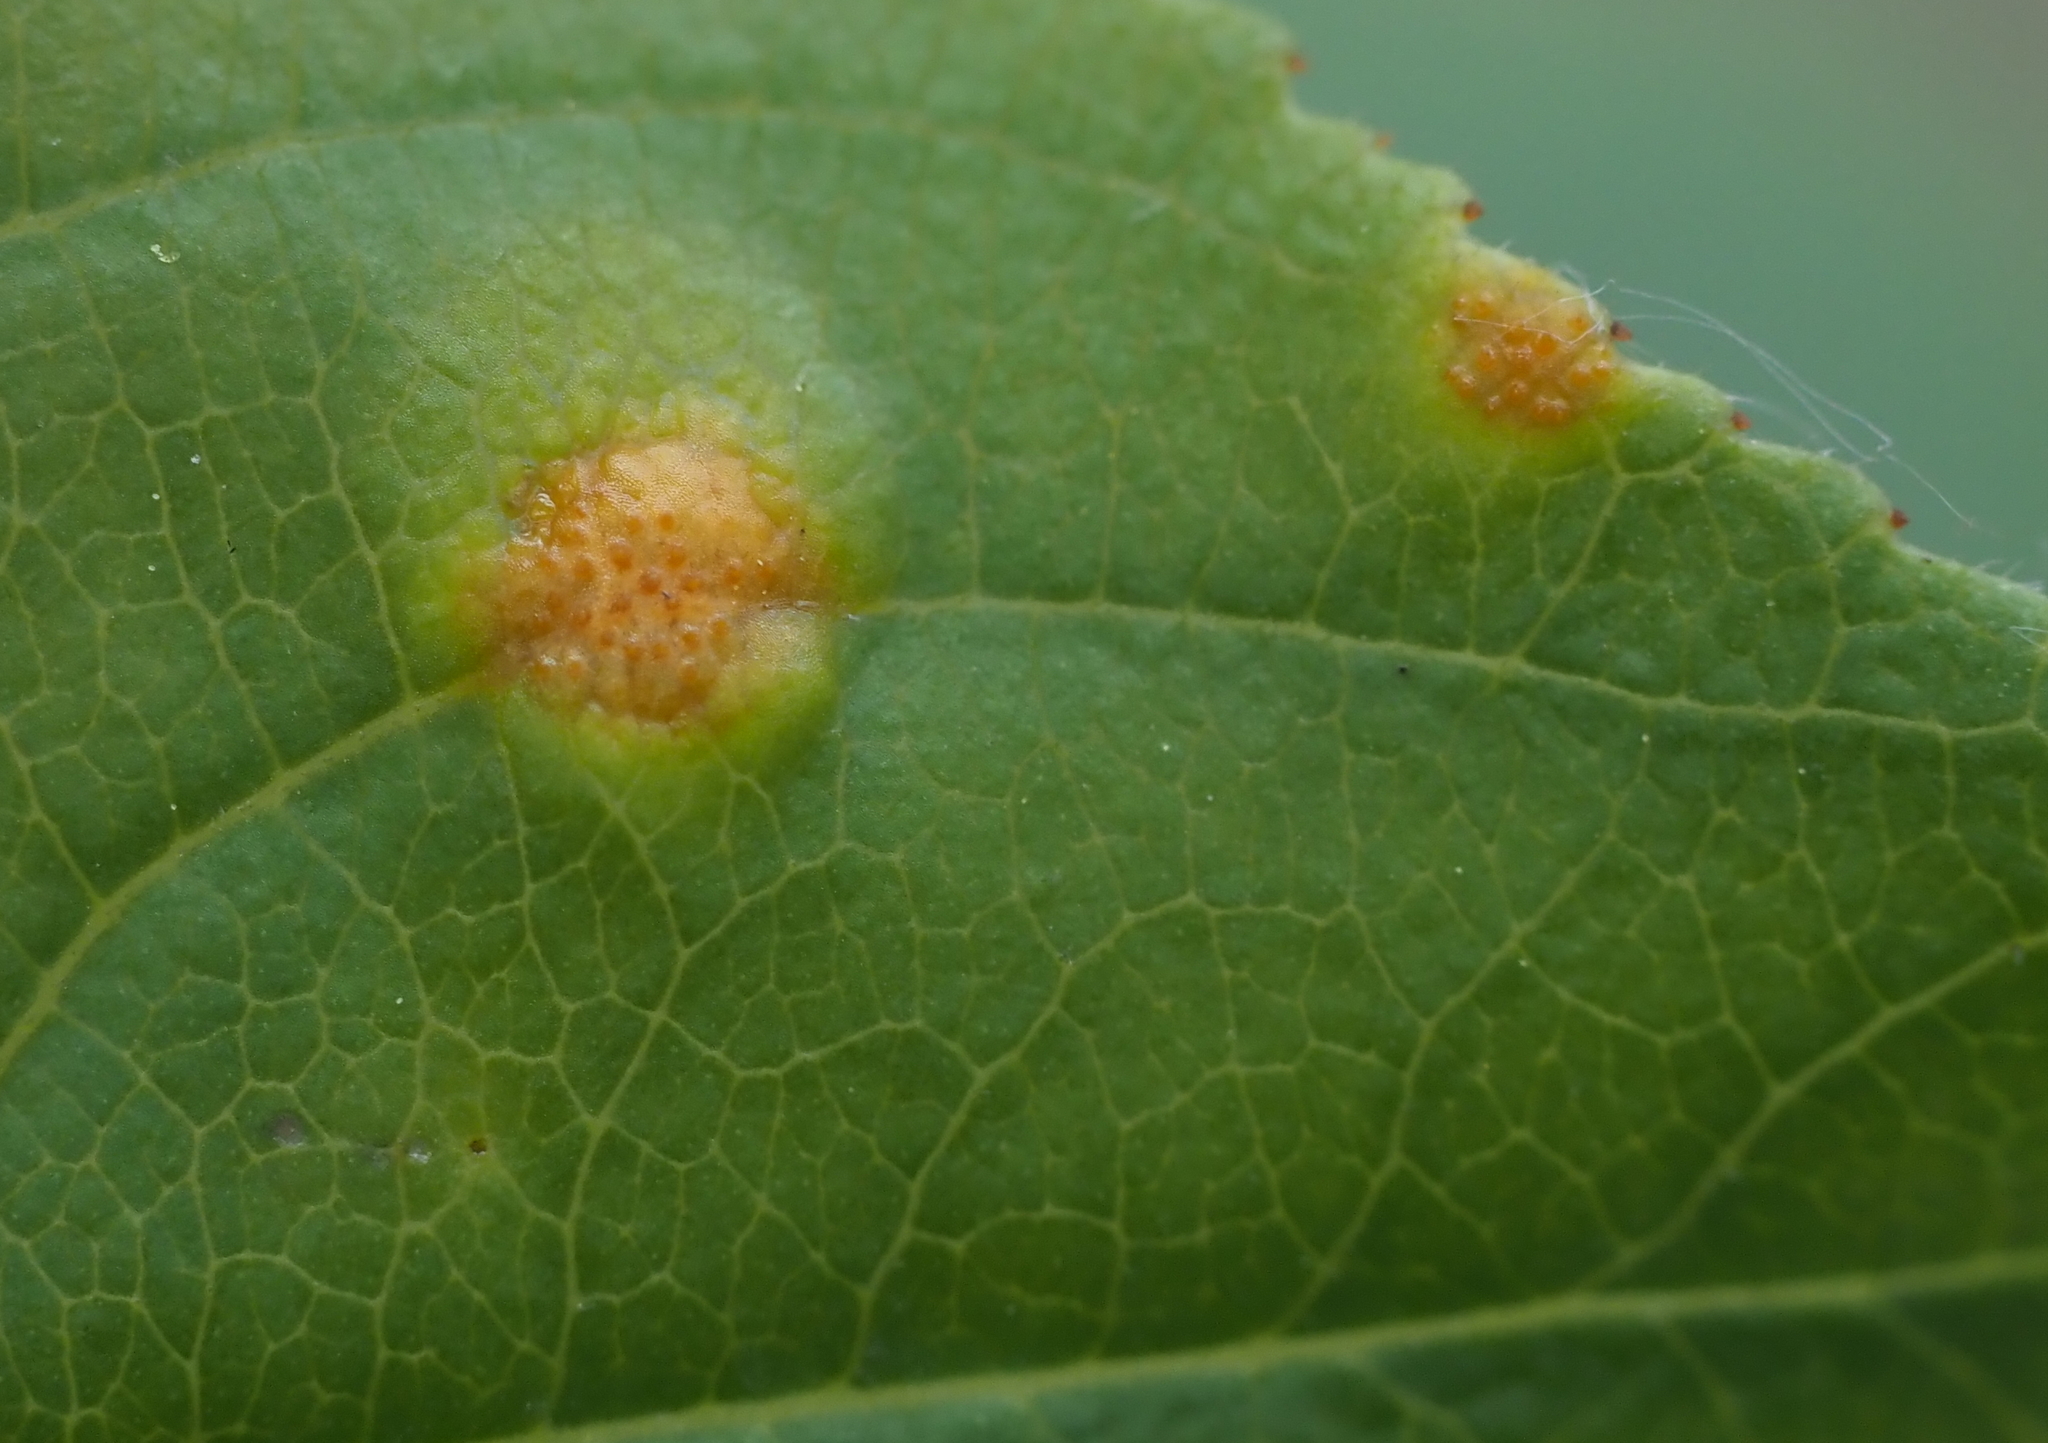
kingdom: Fungi
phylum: Basidiomycota
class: Pucciniomycetes
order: Pucciniales
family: Pucciniaceae
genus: Puccinia
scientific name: Puccinia coronata
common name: Crown rust
